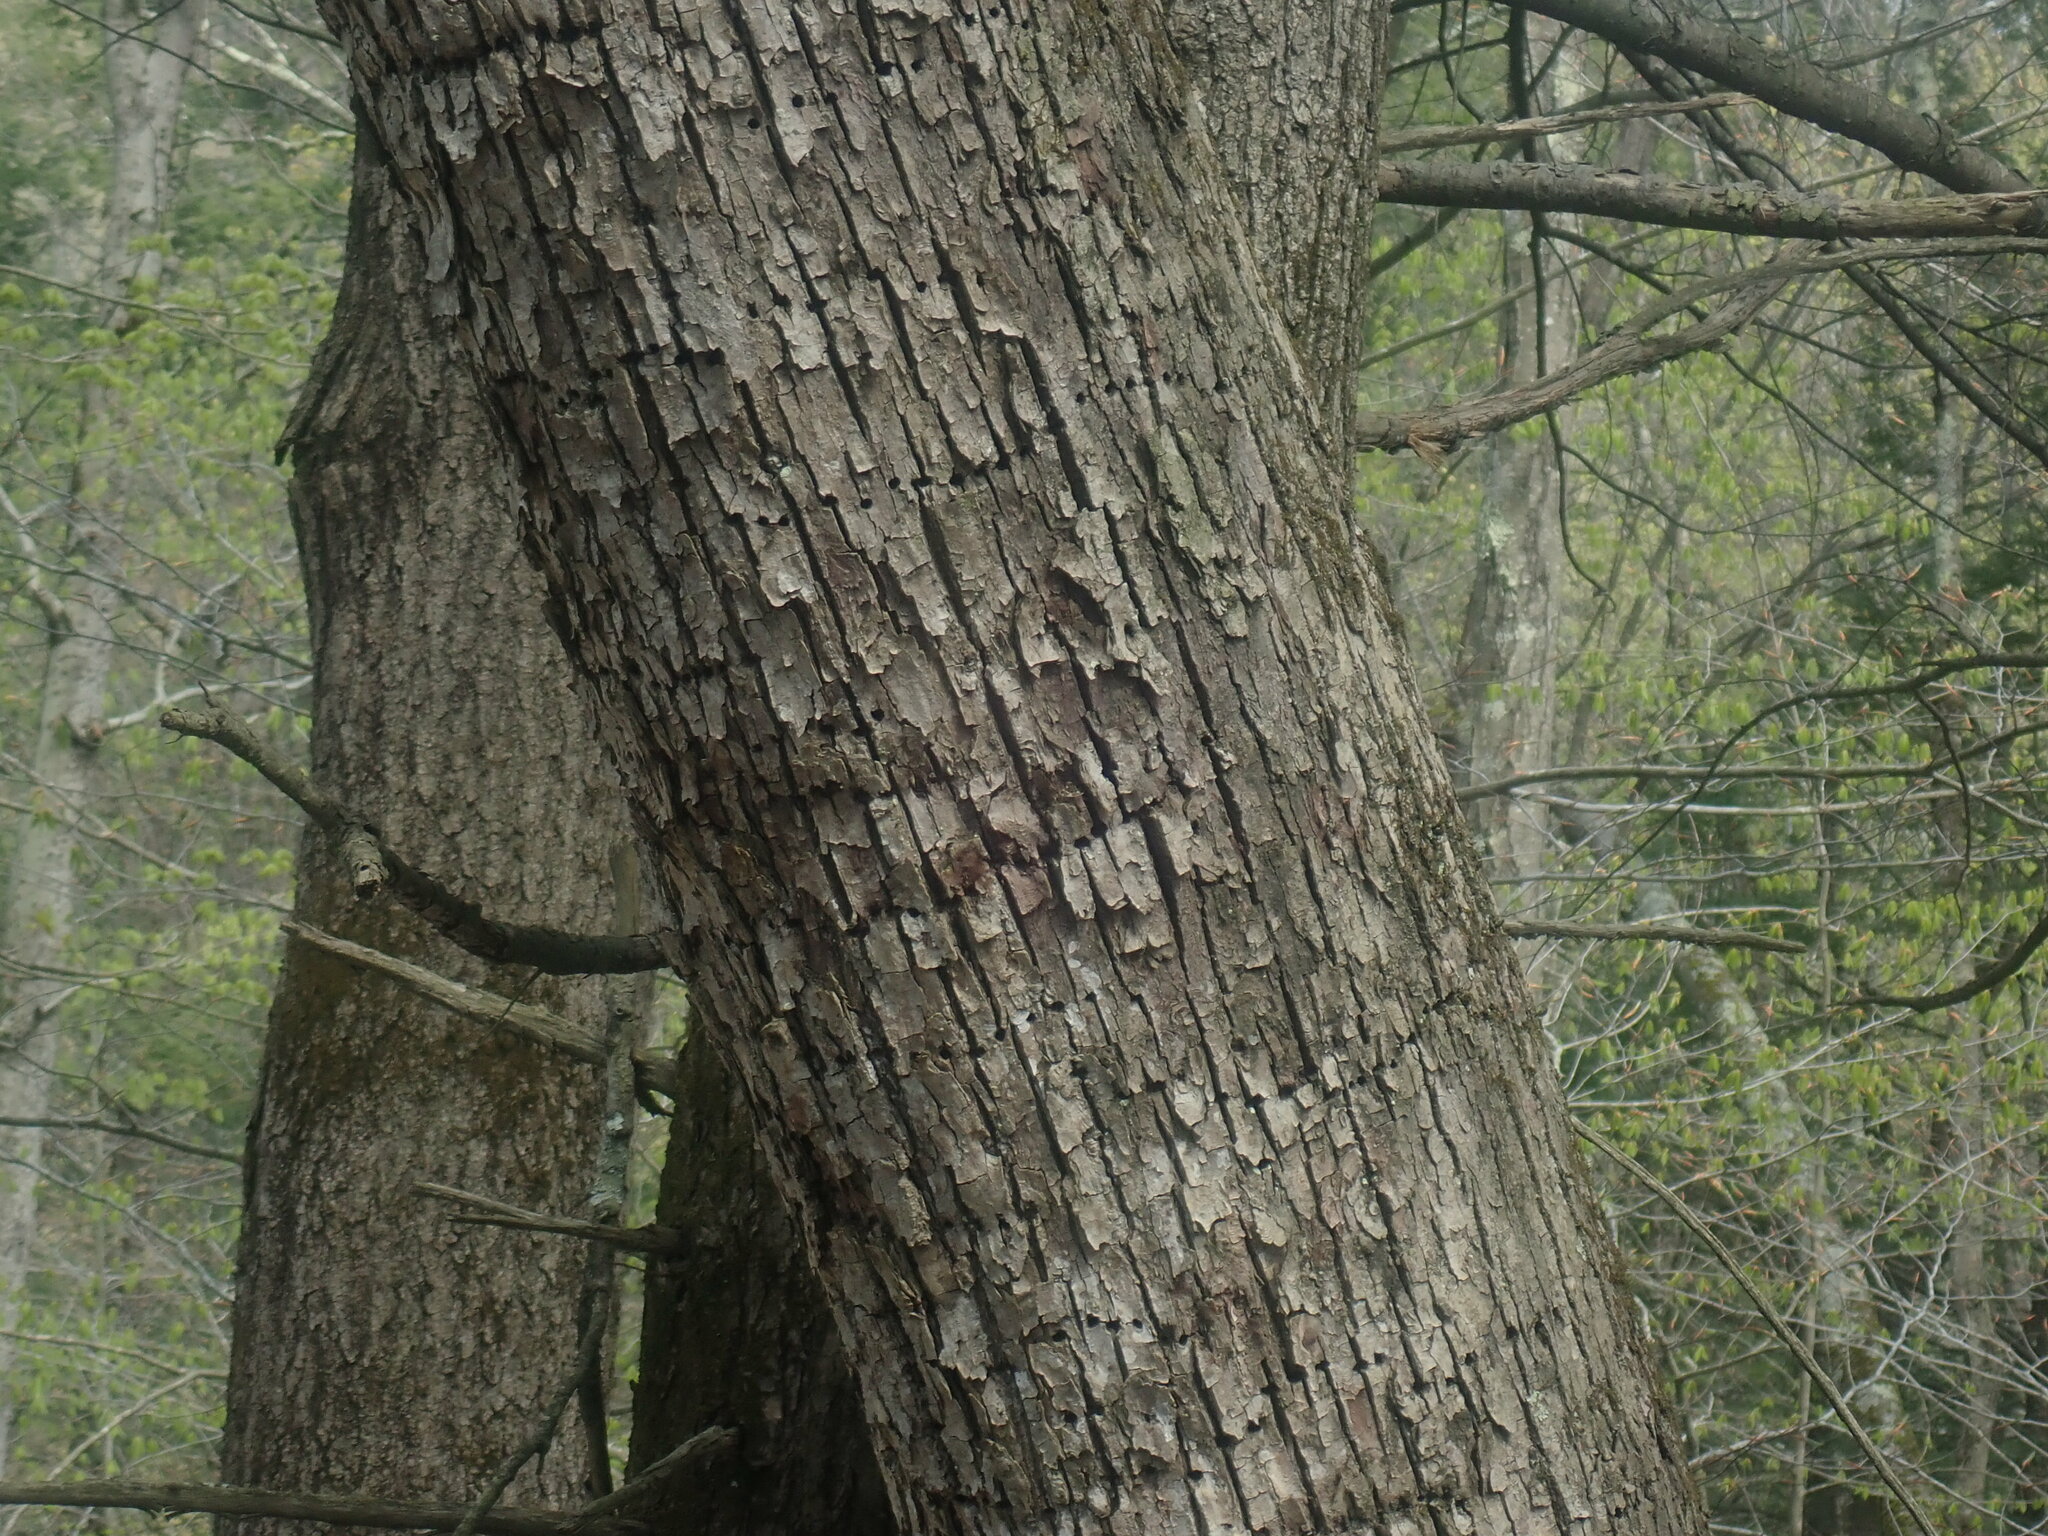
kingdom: Animalia
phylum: Chordata
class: Aves
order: Piciformes
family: Picidae
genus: Sphyrapicus
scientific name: Sphyrapicus varius
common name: Yellow-bellied sapsucker
